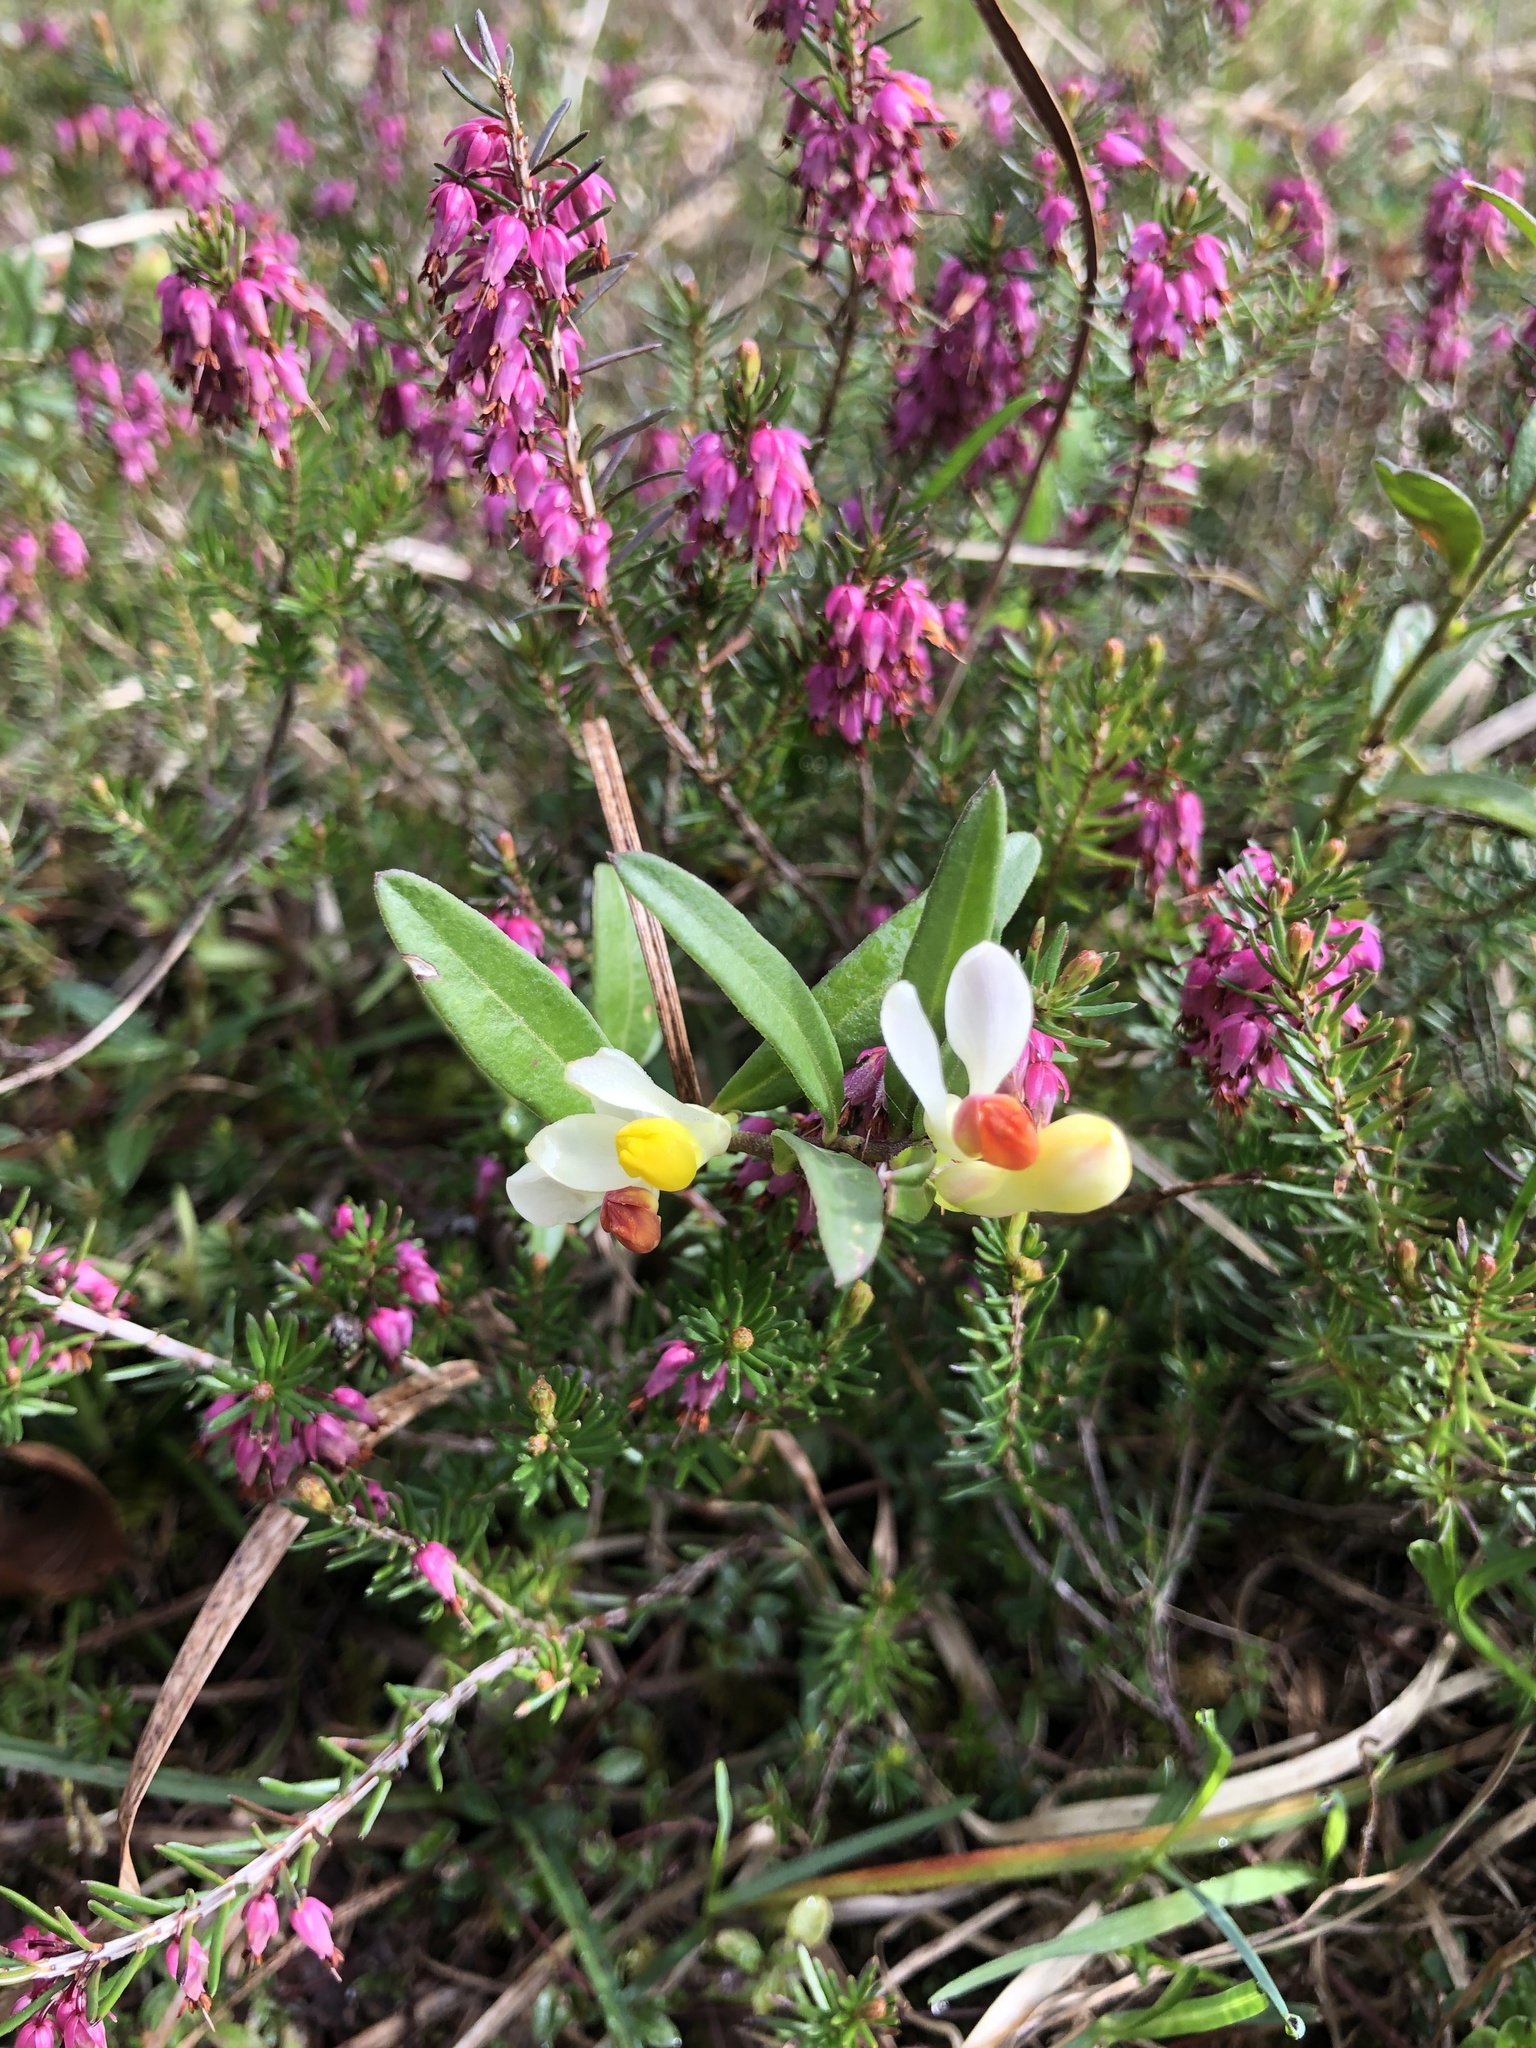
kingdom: Plantae
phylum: Tracheophyta
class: Magnoliopsida
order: Fabales
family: Polygalaceae
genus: Polygaloides
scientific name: Polygaloides chamaebuxus
